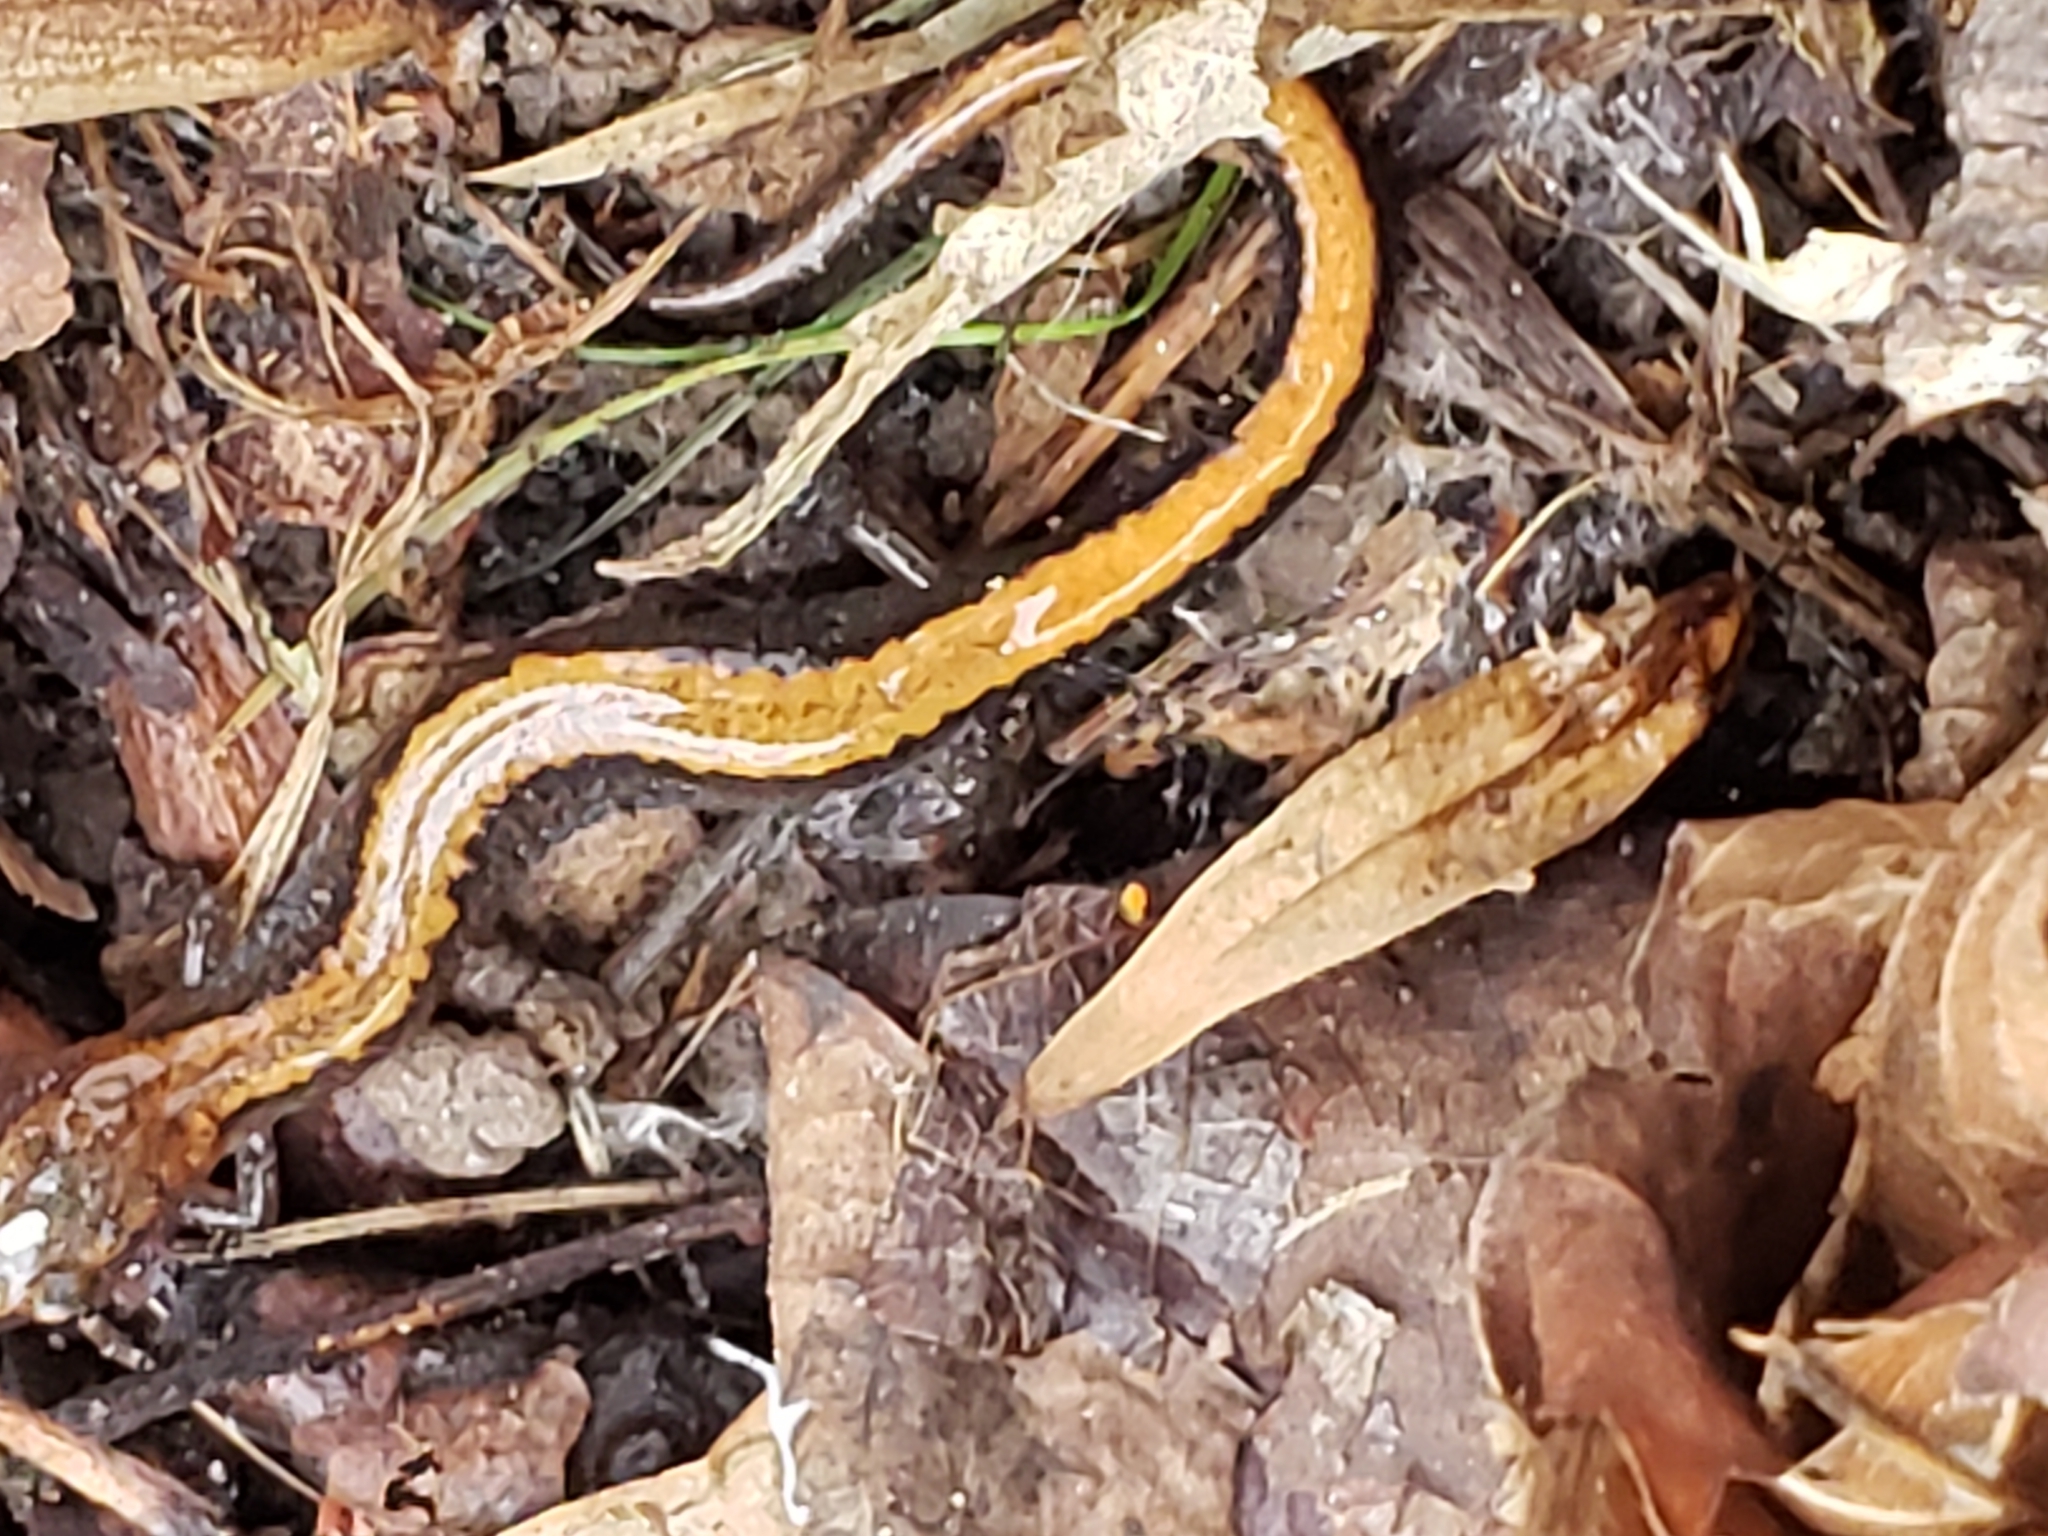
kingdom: Animalia
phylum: Chordata
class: Amphibia
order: Caudata
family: Plethodontidae
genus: Plethodon
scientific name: Plethodon cinereus
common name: Redback salamander
